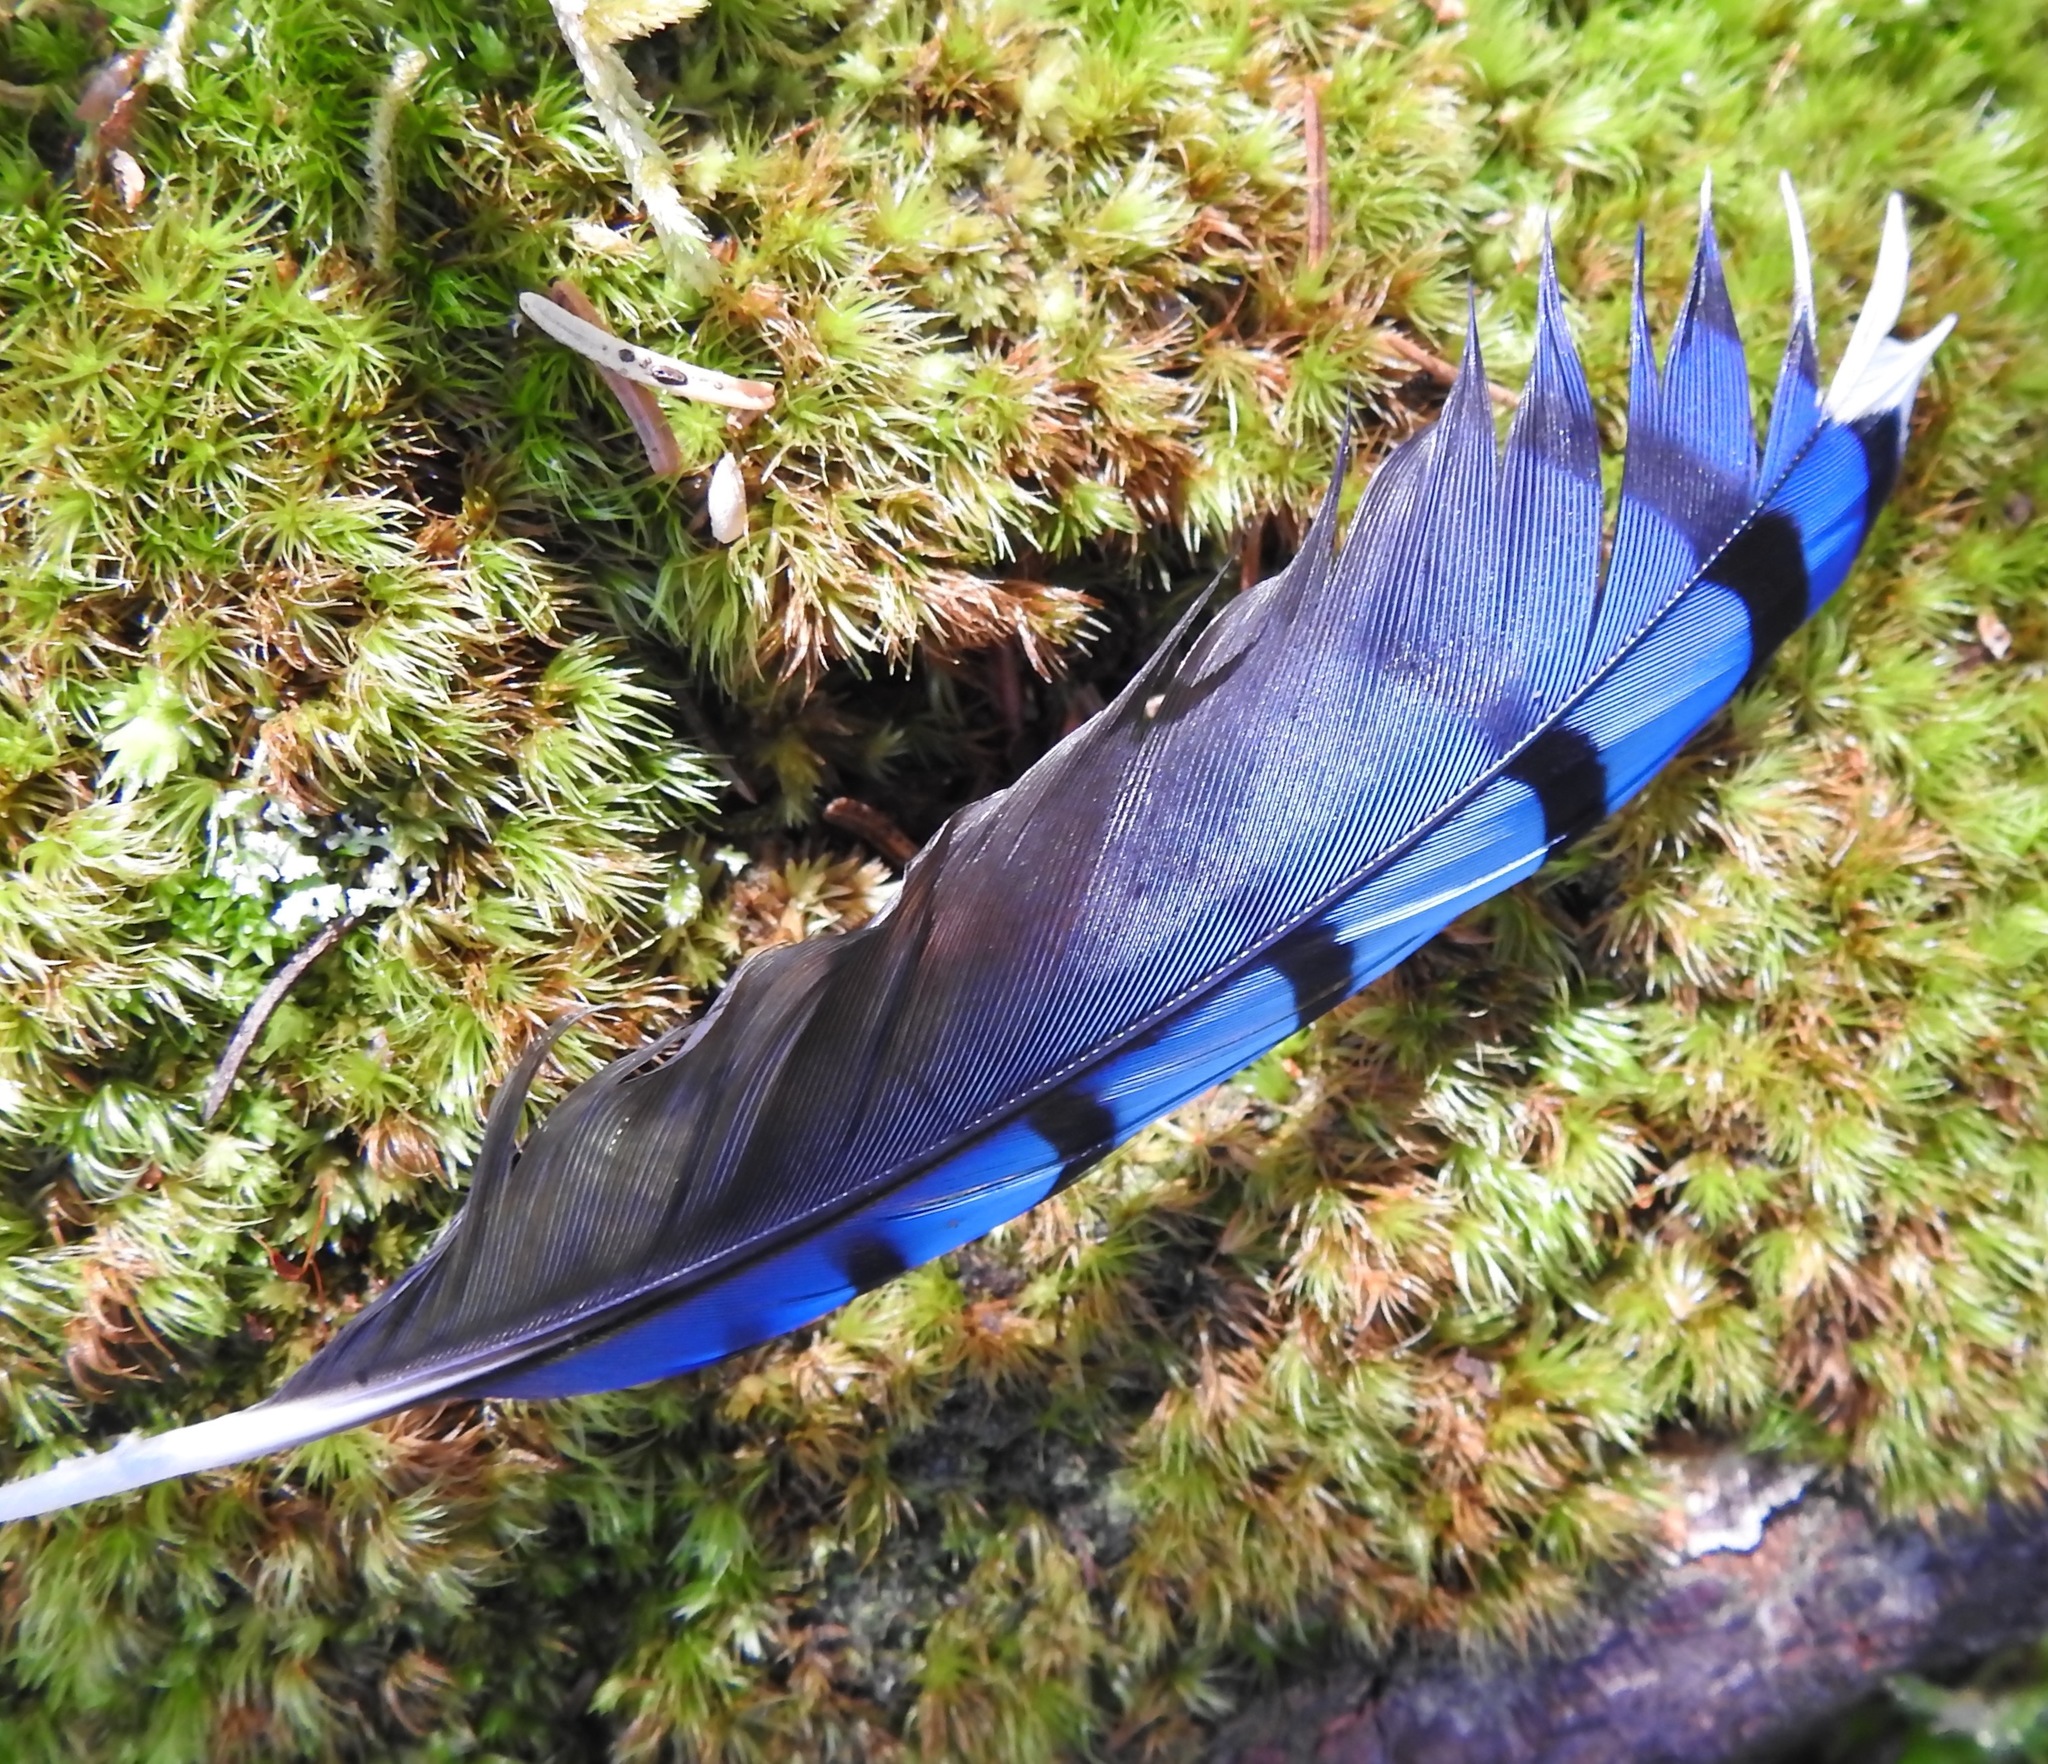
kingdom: Animalia
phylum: Chordata
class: Aves
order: Passeriformes
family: Corvidae
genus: Cyanocitta
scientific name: Cyanocitta cristata
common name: Blue jay
